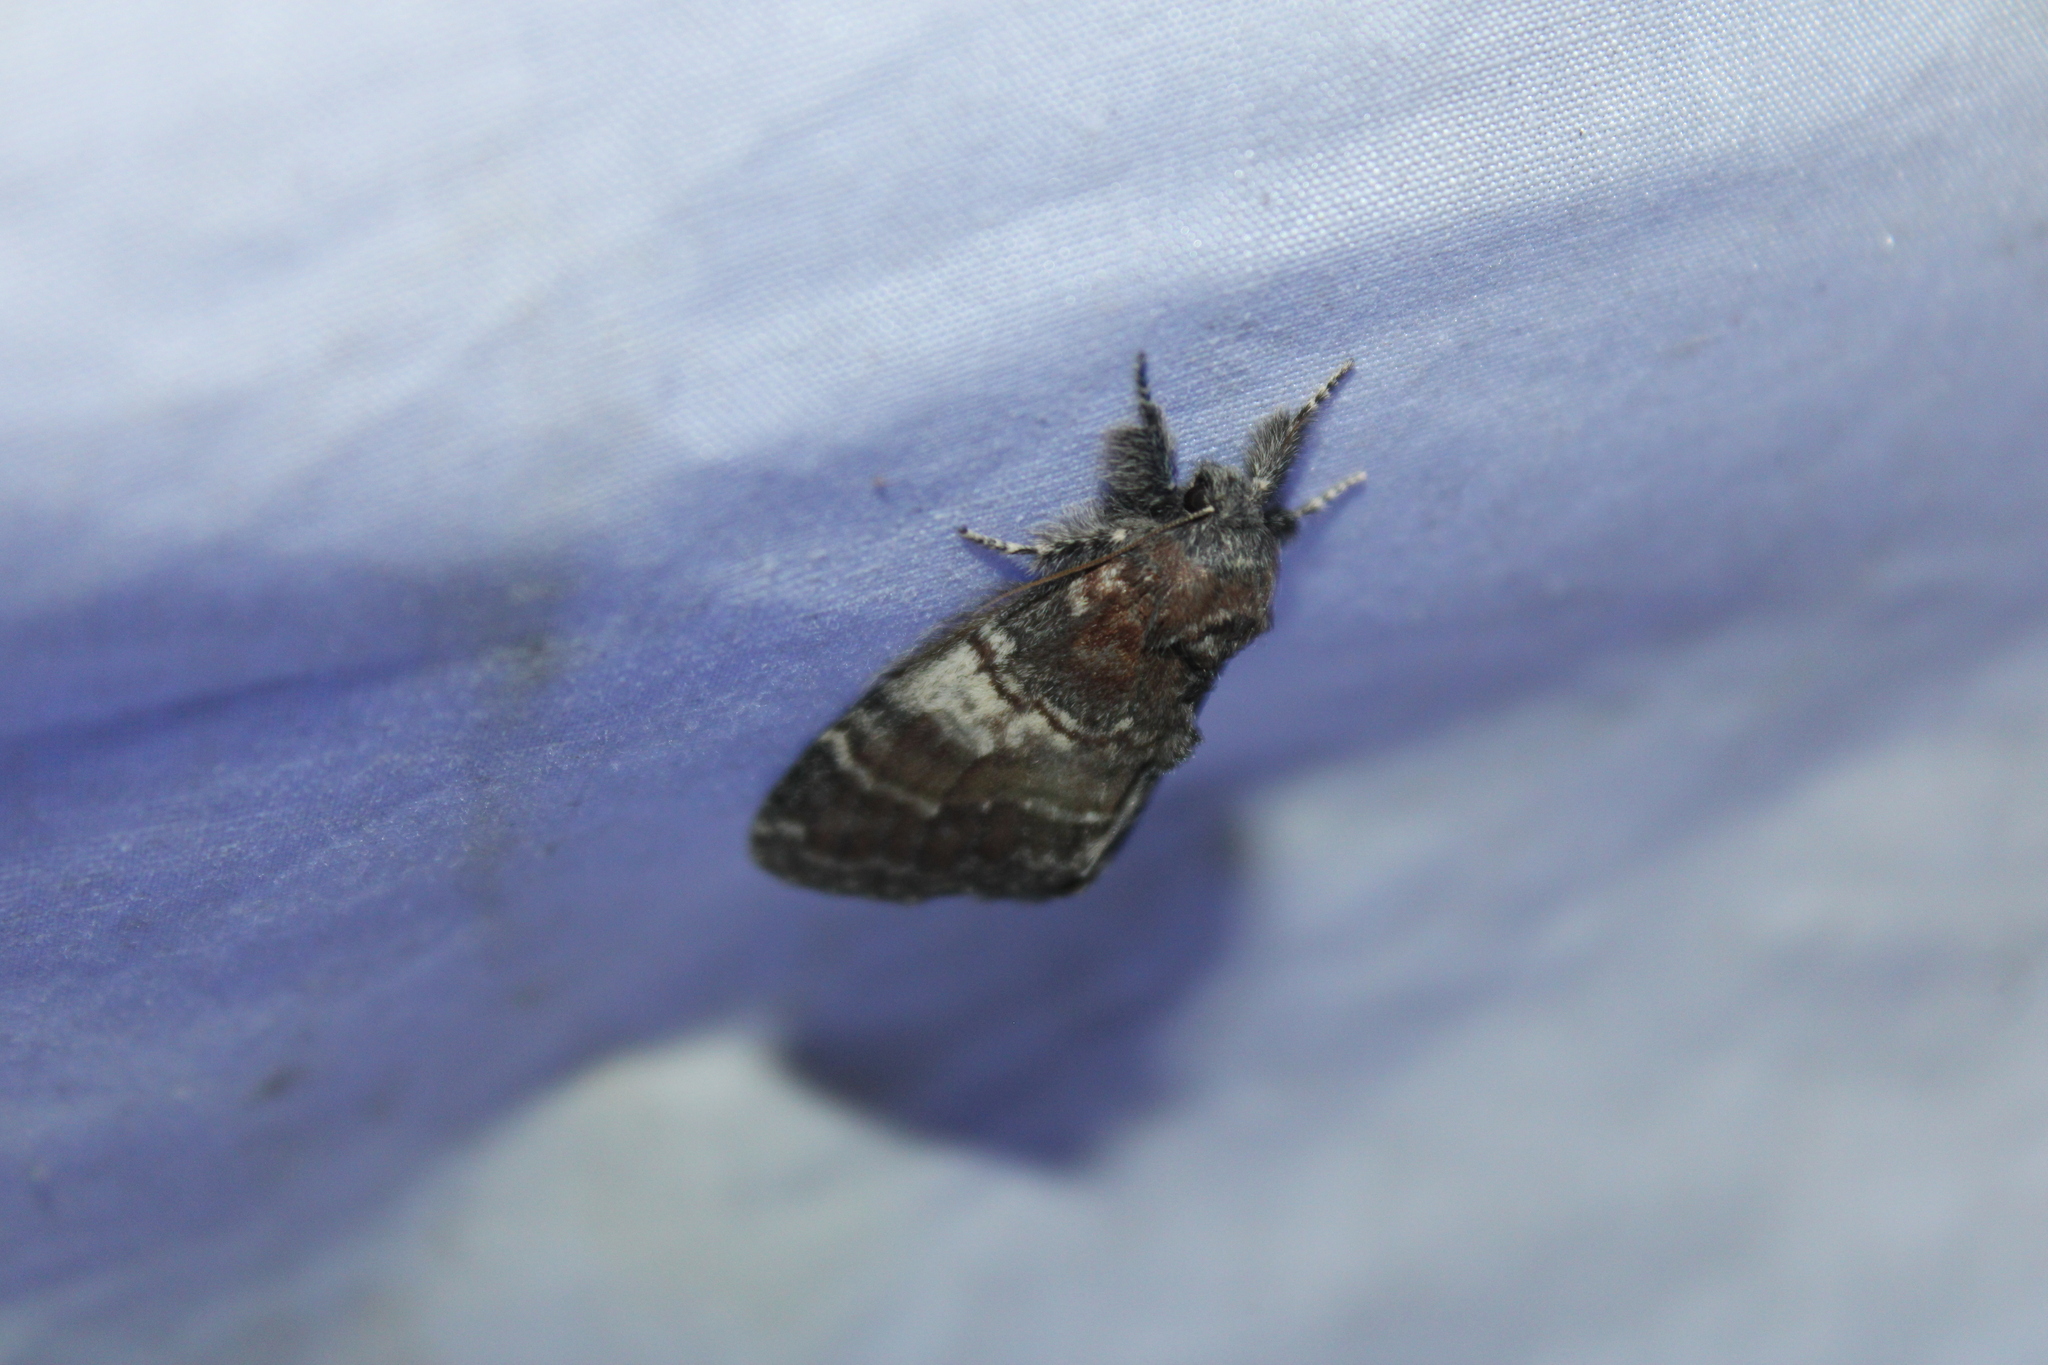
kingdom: Animalia
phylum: Arthropoda
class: Insecta
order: Lepidoptera
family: Notodontidae
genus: Peridea
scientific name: Peridea ferruginea
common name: Chocolate prominent
